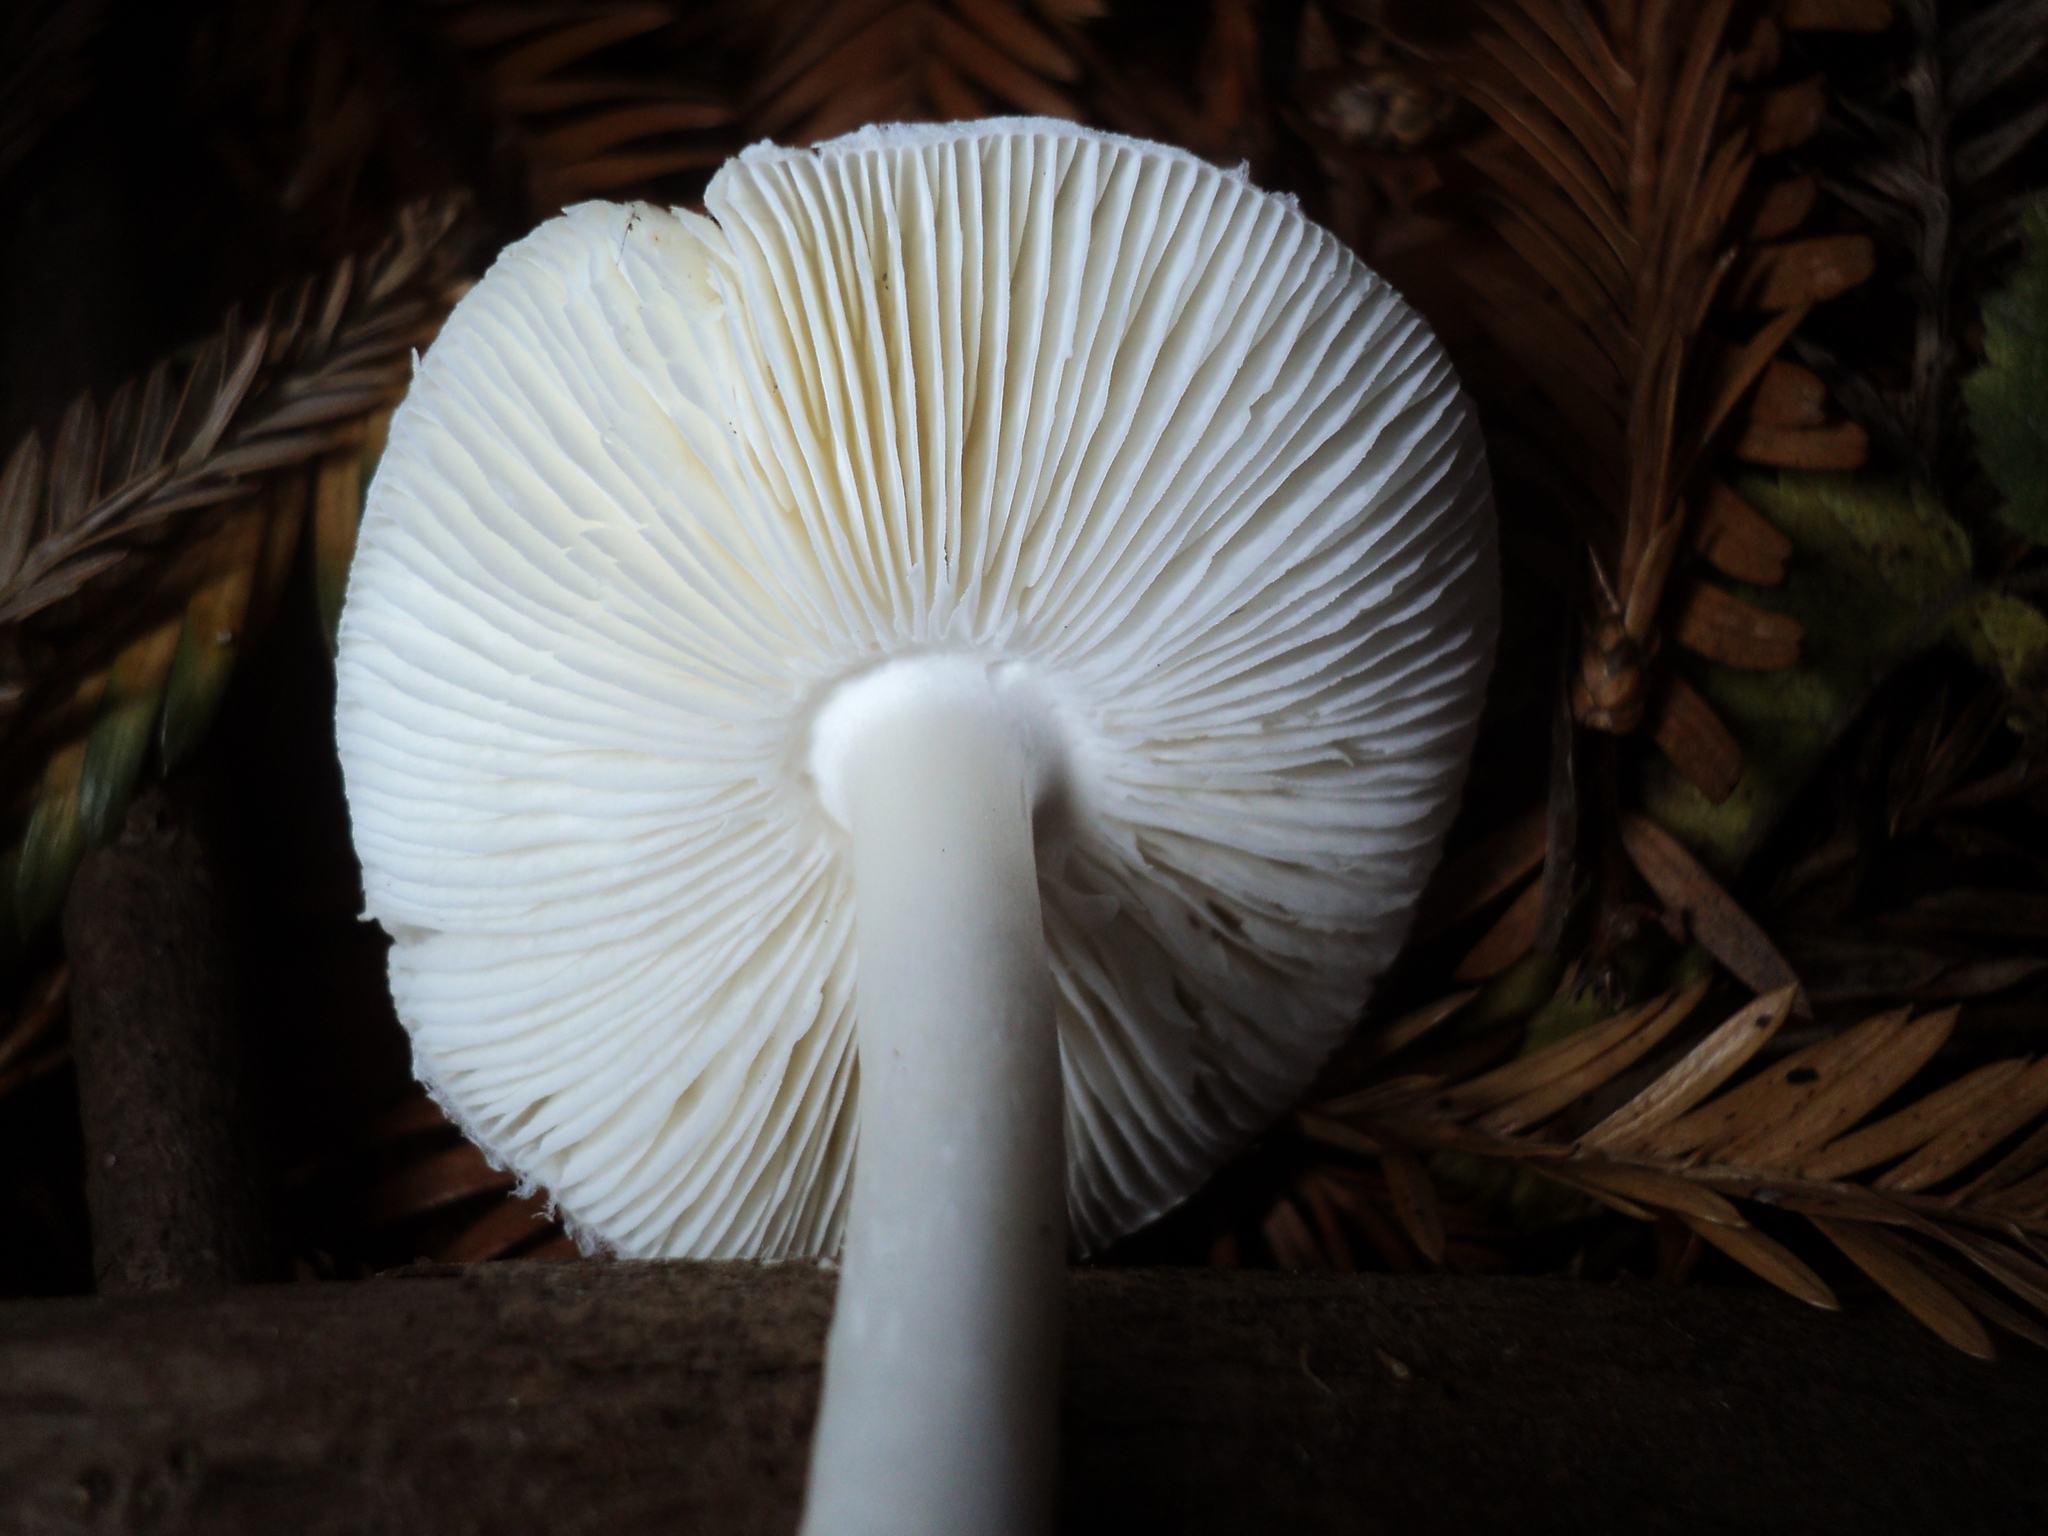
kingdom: Fungi
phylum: Basidiomycota
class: Agaricomycetes
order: Agaricales
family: Agaricaceae
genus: Lepiota
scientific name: Lepiota rubrotinctoides
